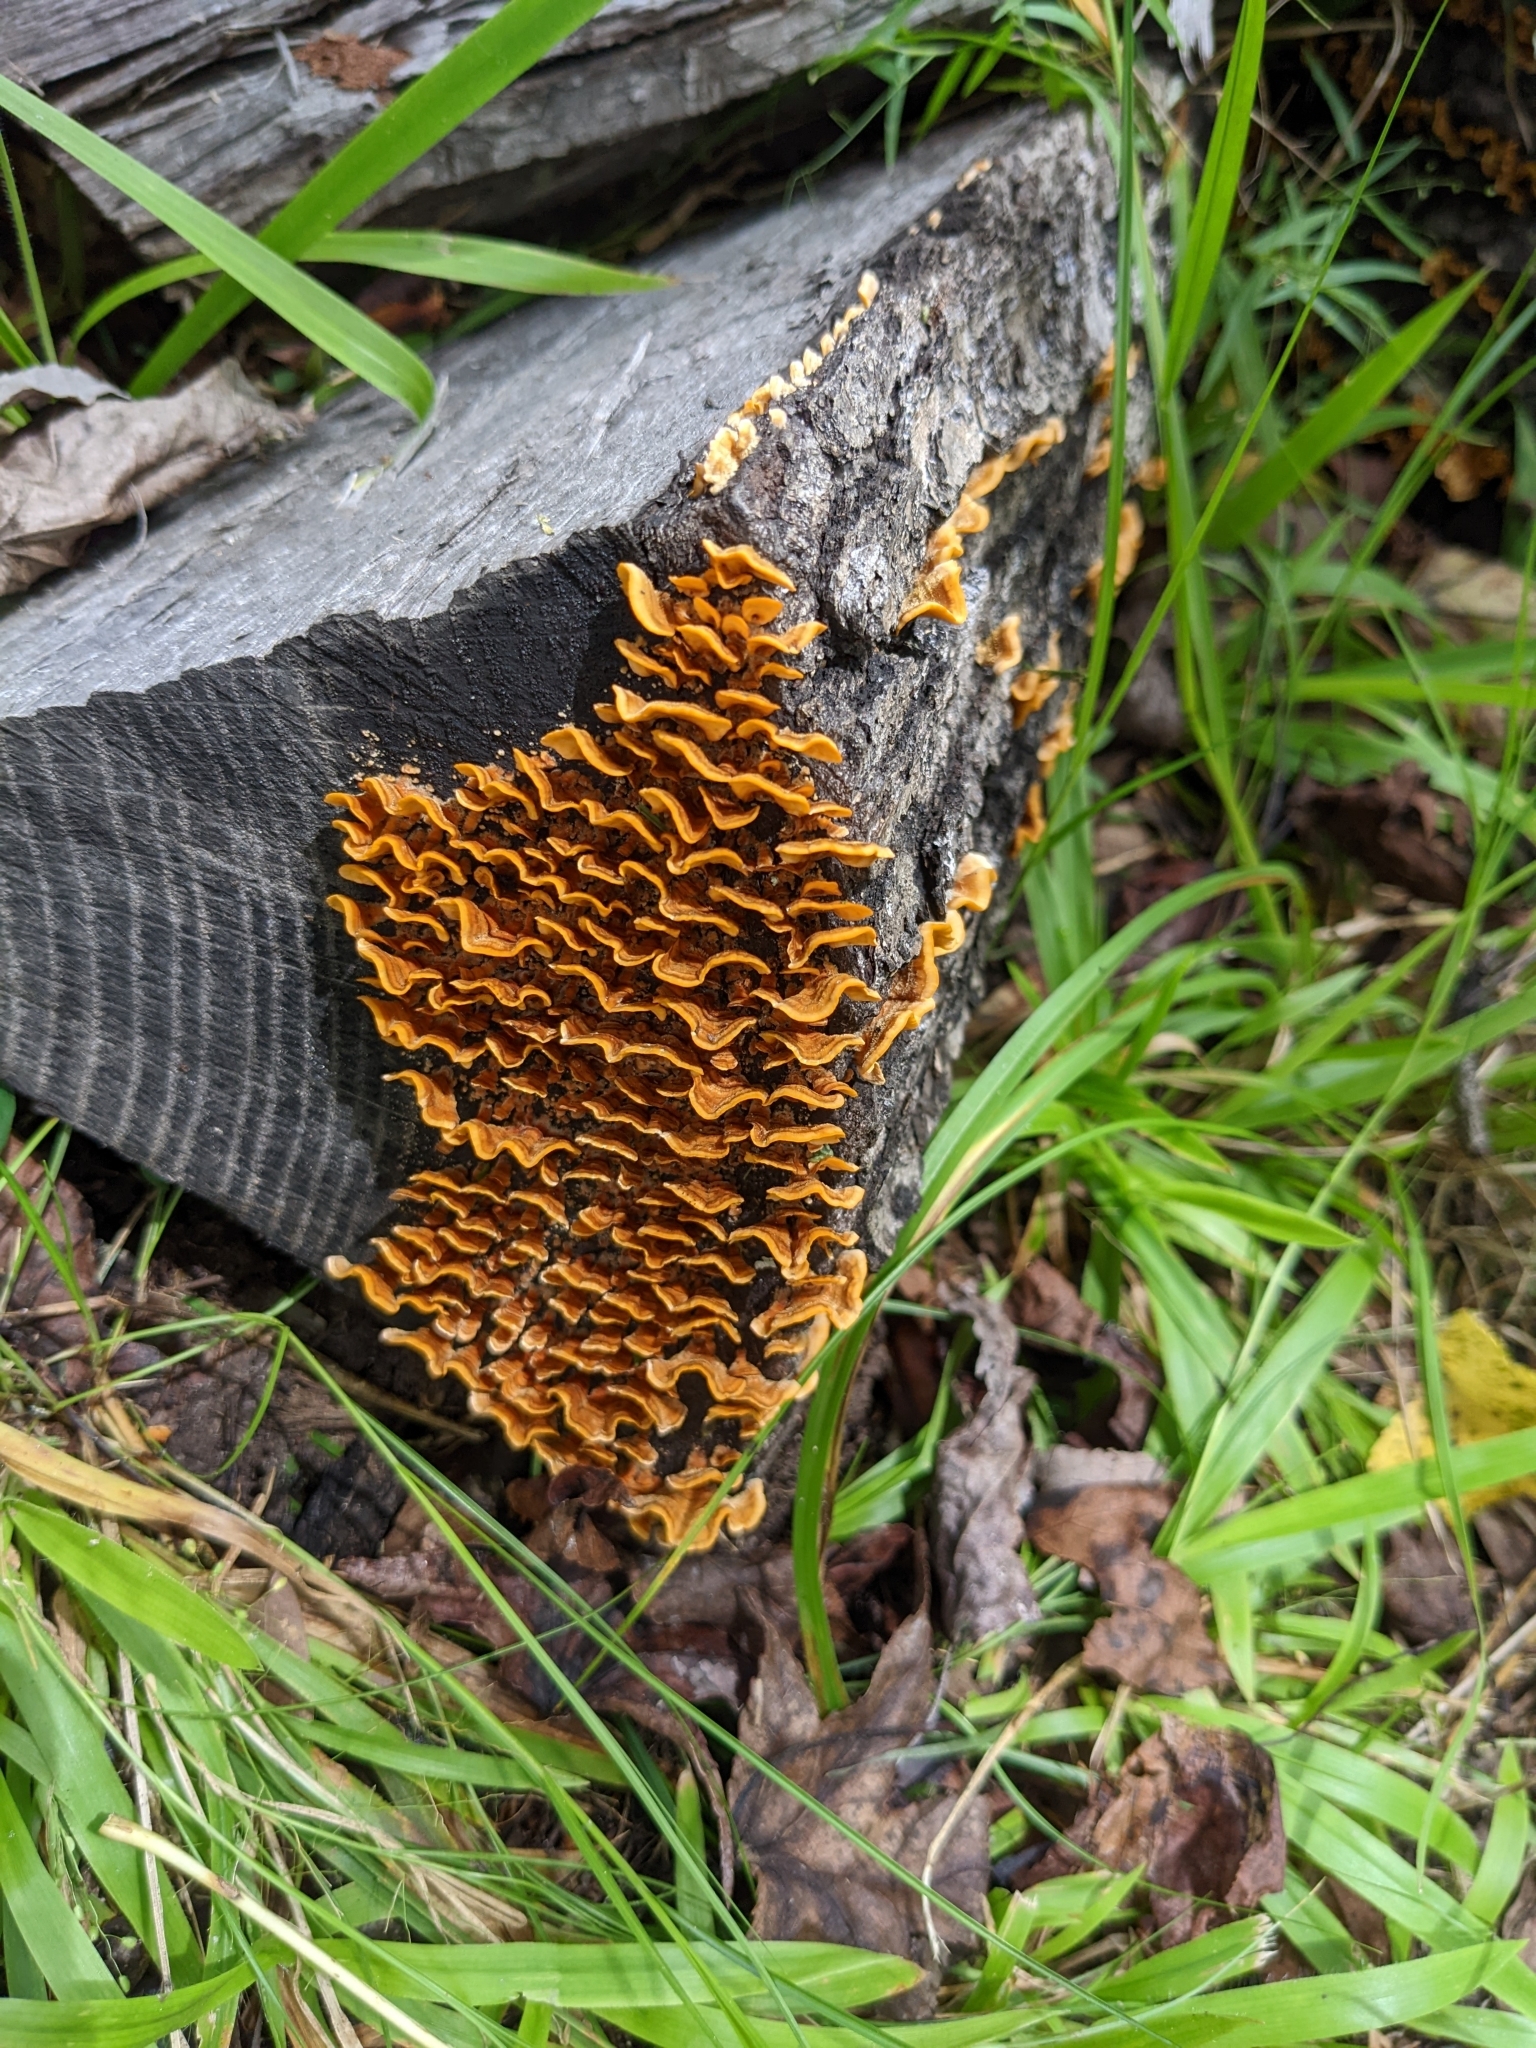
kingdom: Fungi
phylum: Basidiomycota
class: Agaricomycetes
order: Russulales
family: Stereaceae
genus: Stereum
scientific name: Stereum complicatum
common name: Crowded parchment
